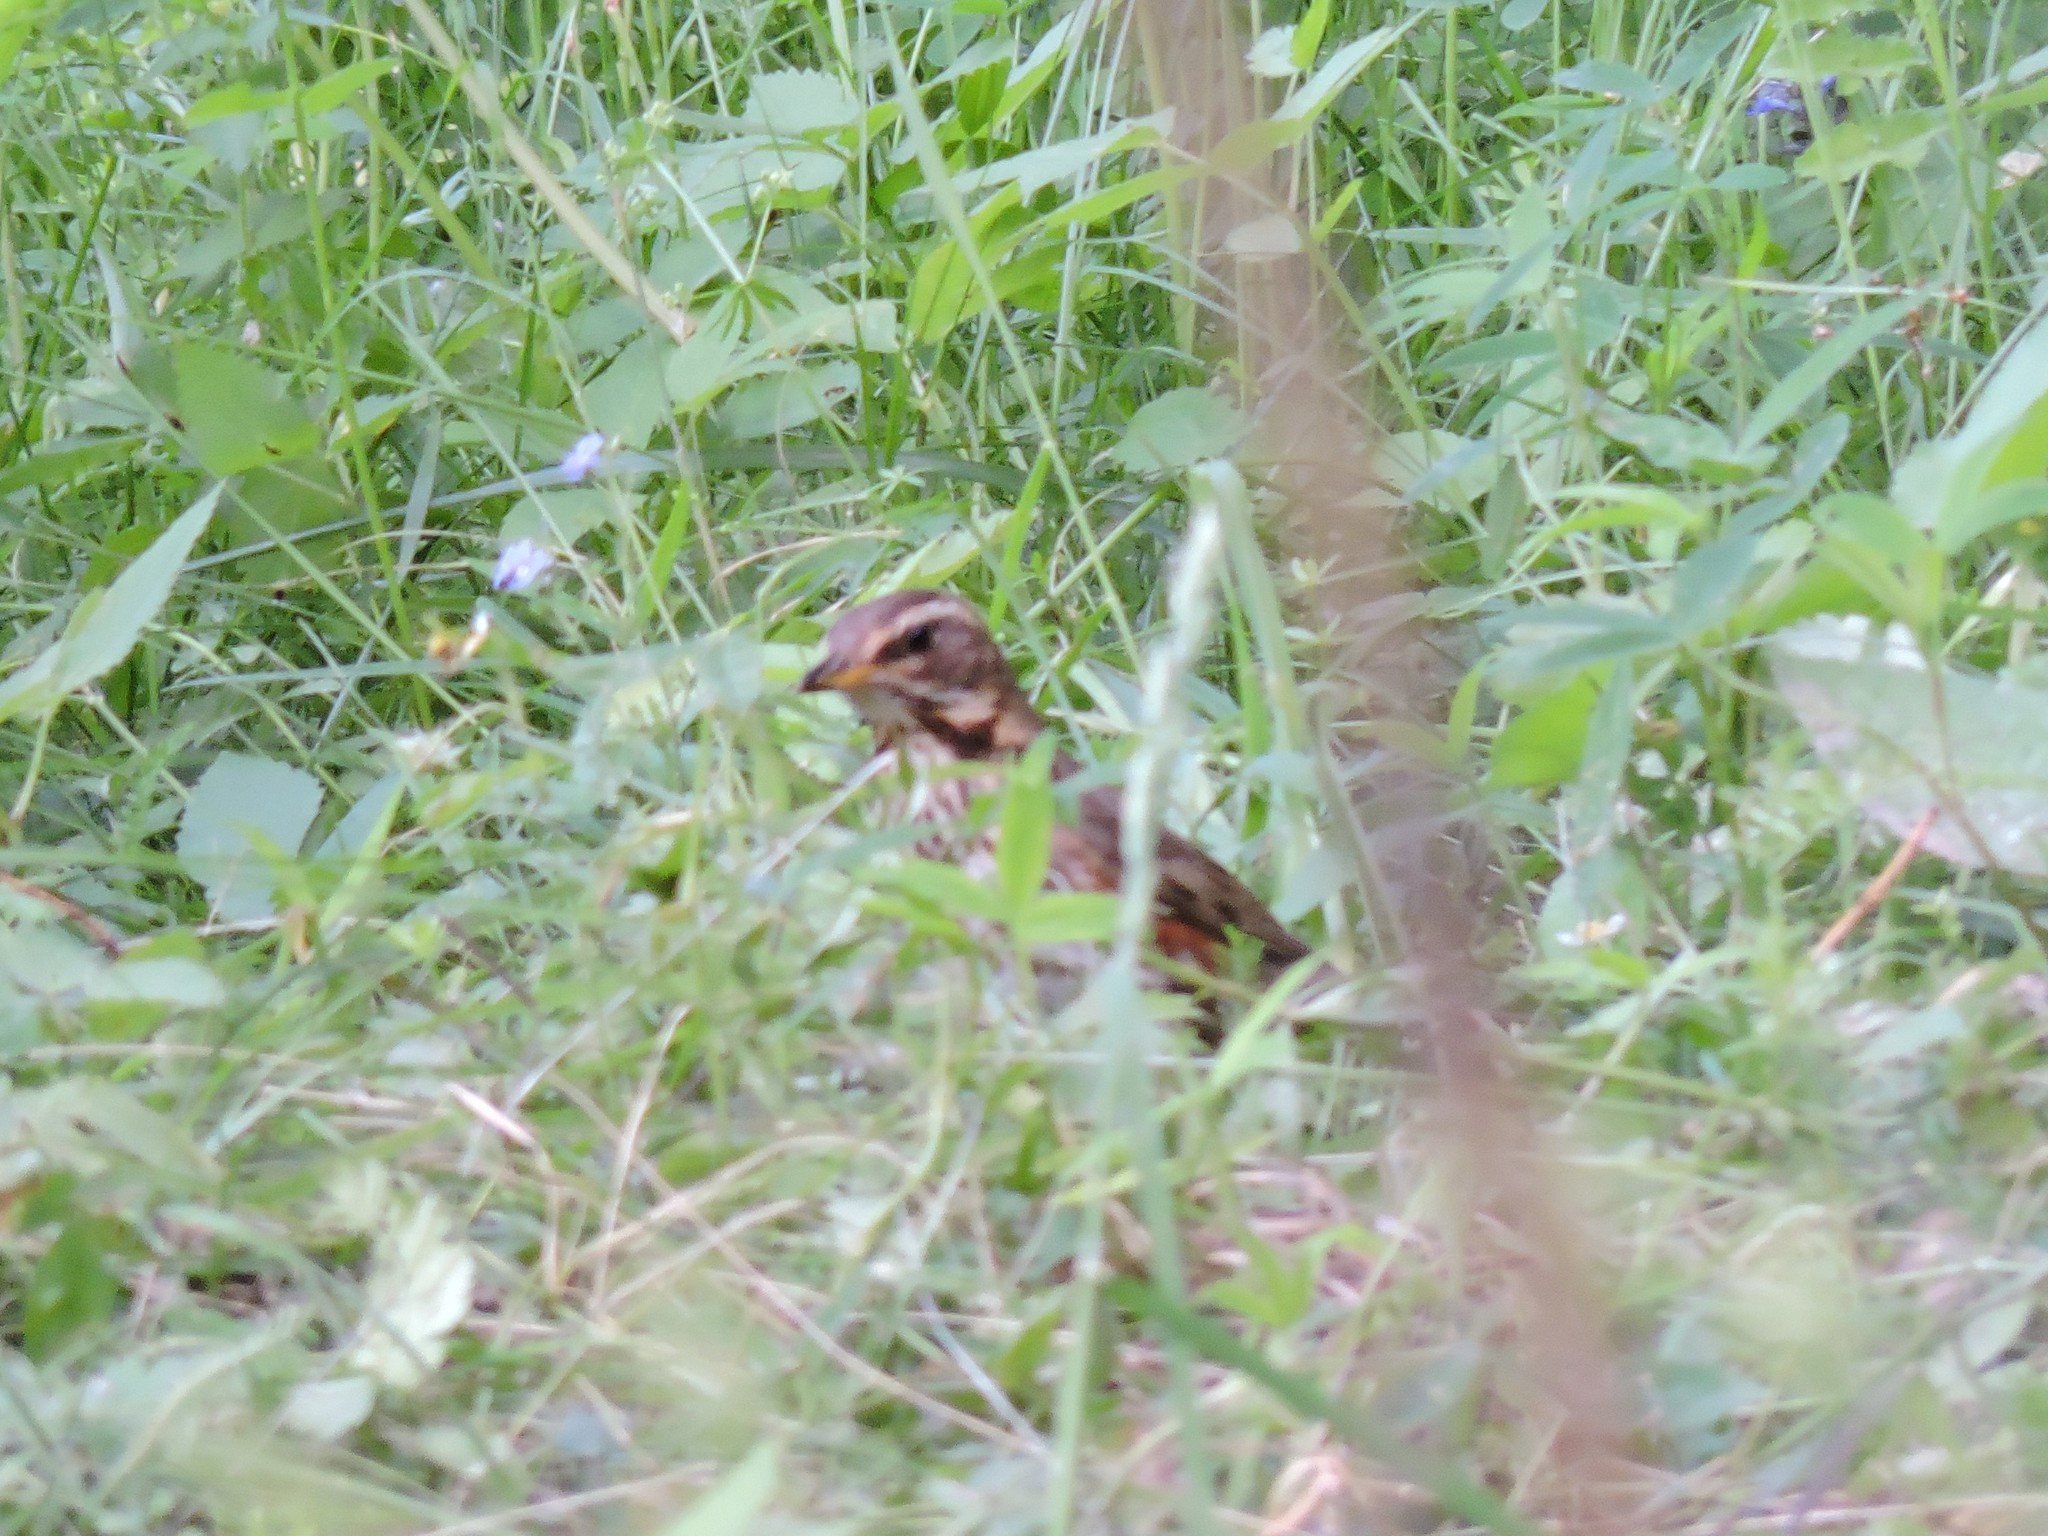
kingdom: Animalia
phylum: Chordata
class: Aves
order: Passeriformes
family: Turdidae
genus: Turdus
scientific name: Turdus iliacus
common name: Redwing
